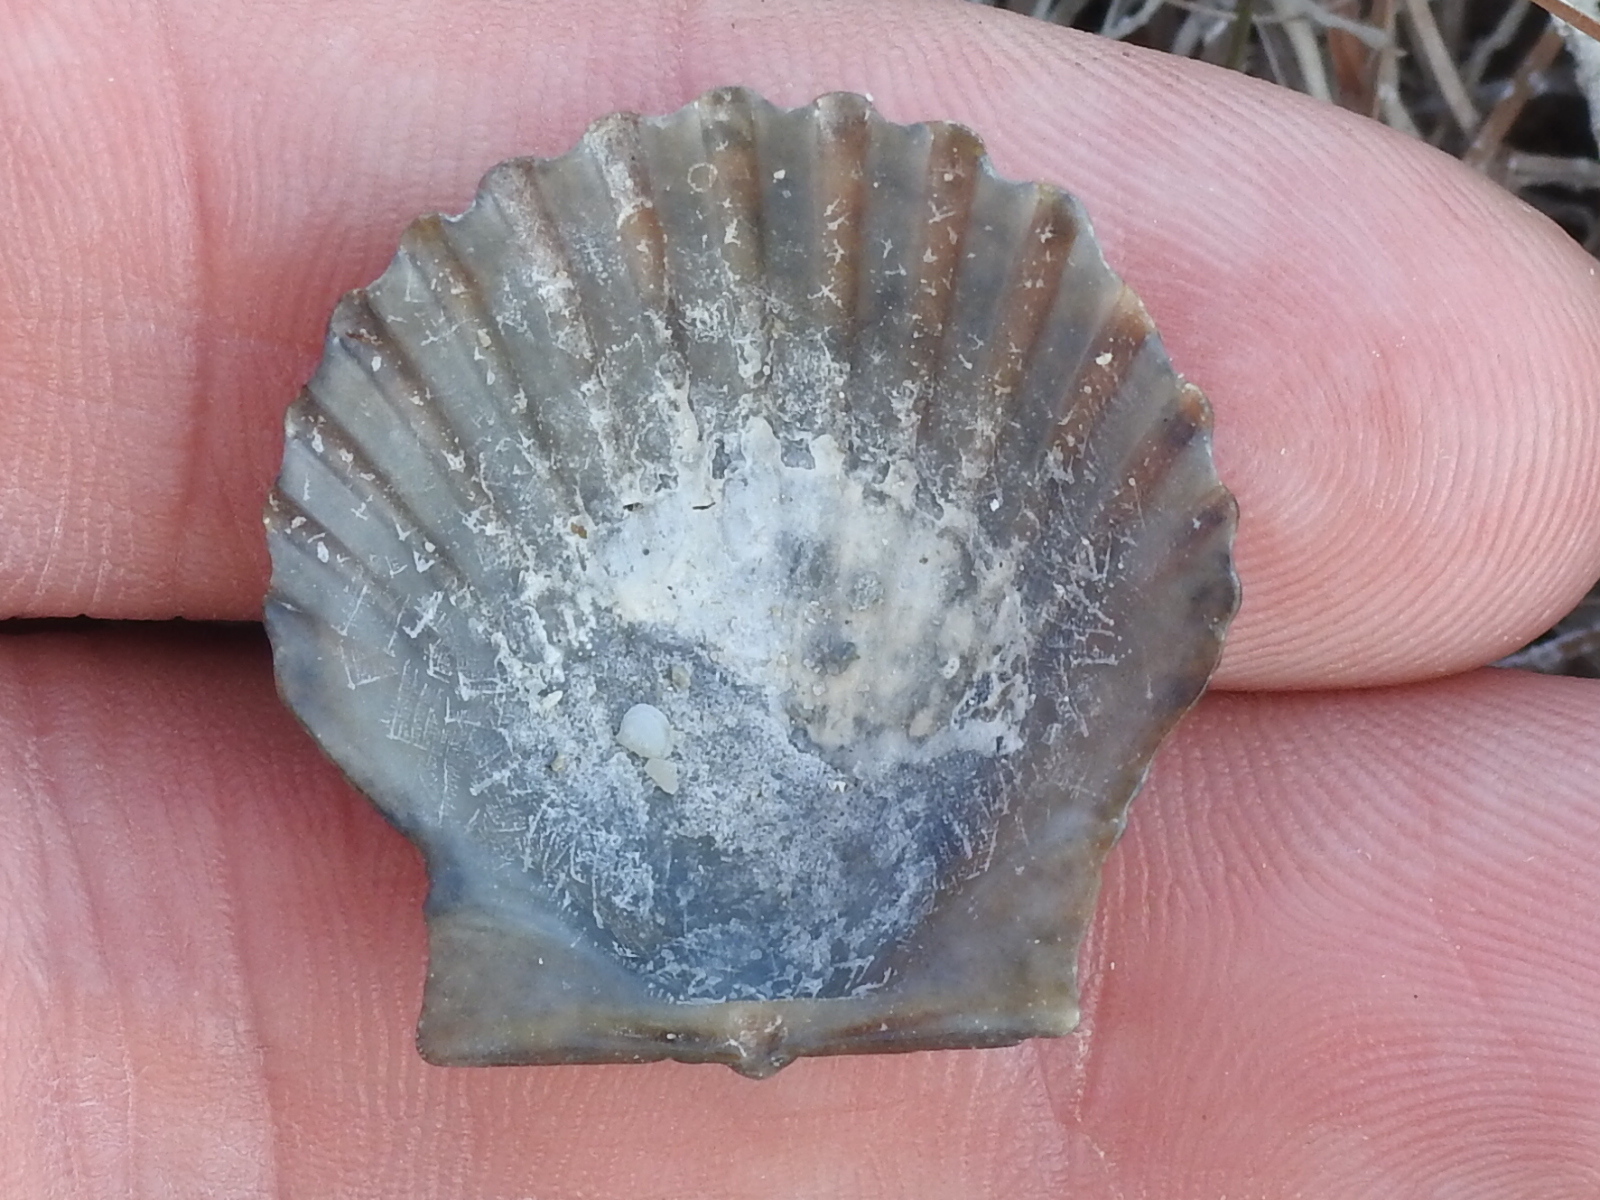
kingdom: Animalia
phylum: Mollusca
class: Bivalvia
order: Pectinida
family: Pectinidae
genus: Argopecten
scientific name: Argopecten irradians
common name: Atlantic bay scallop
